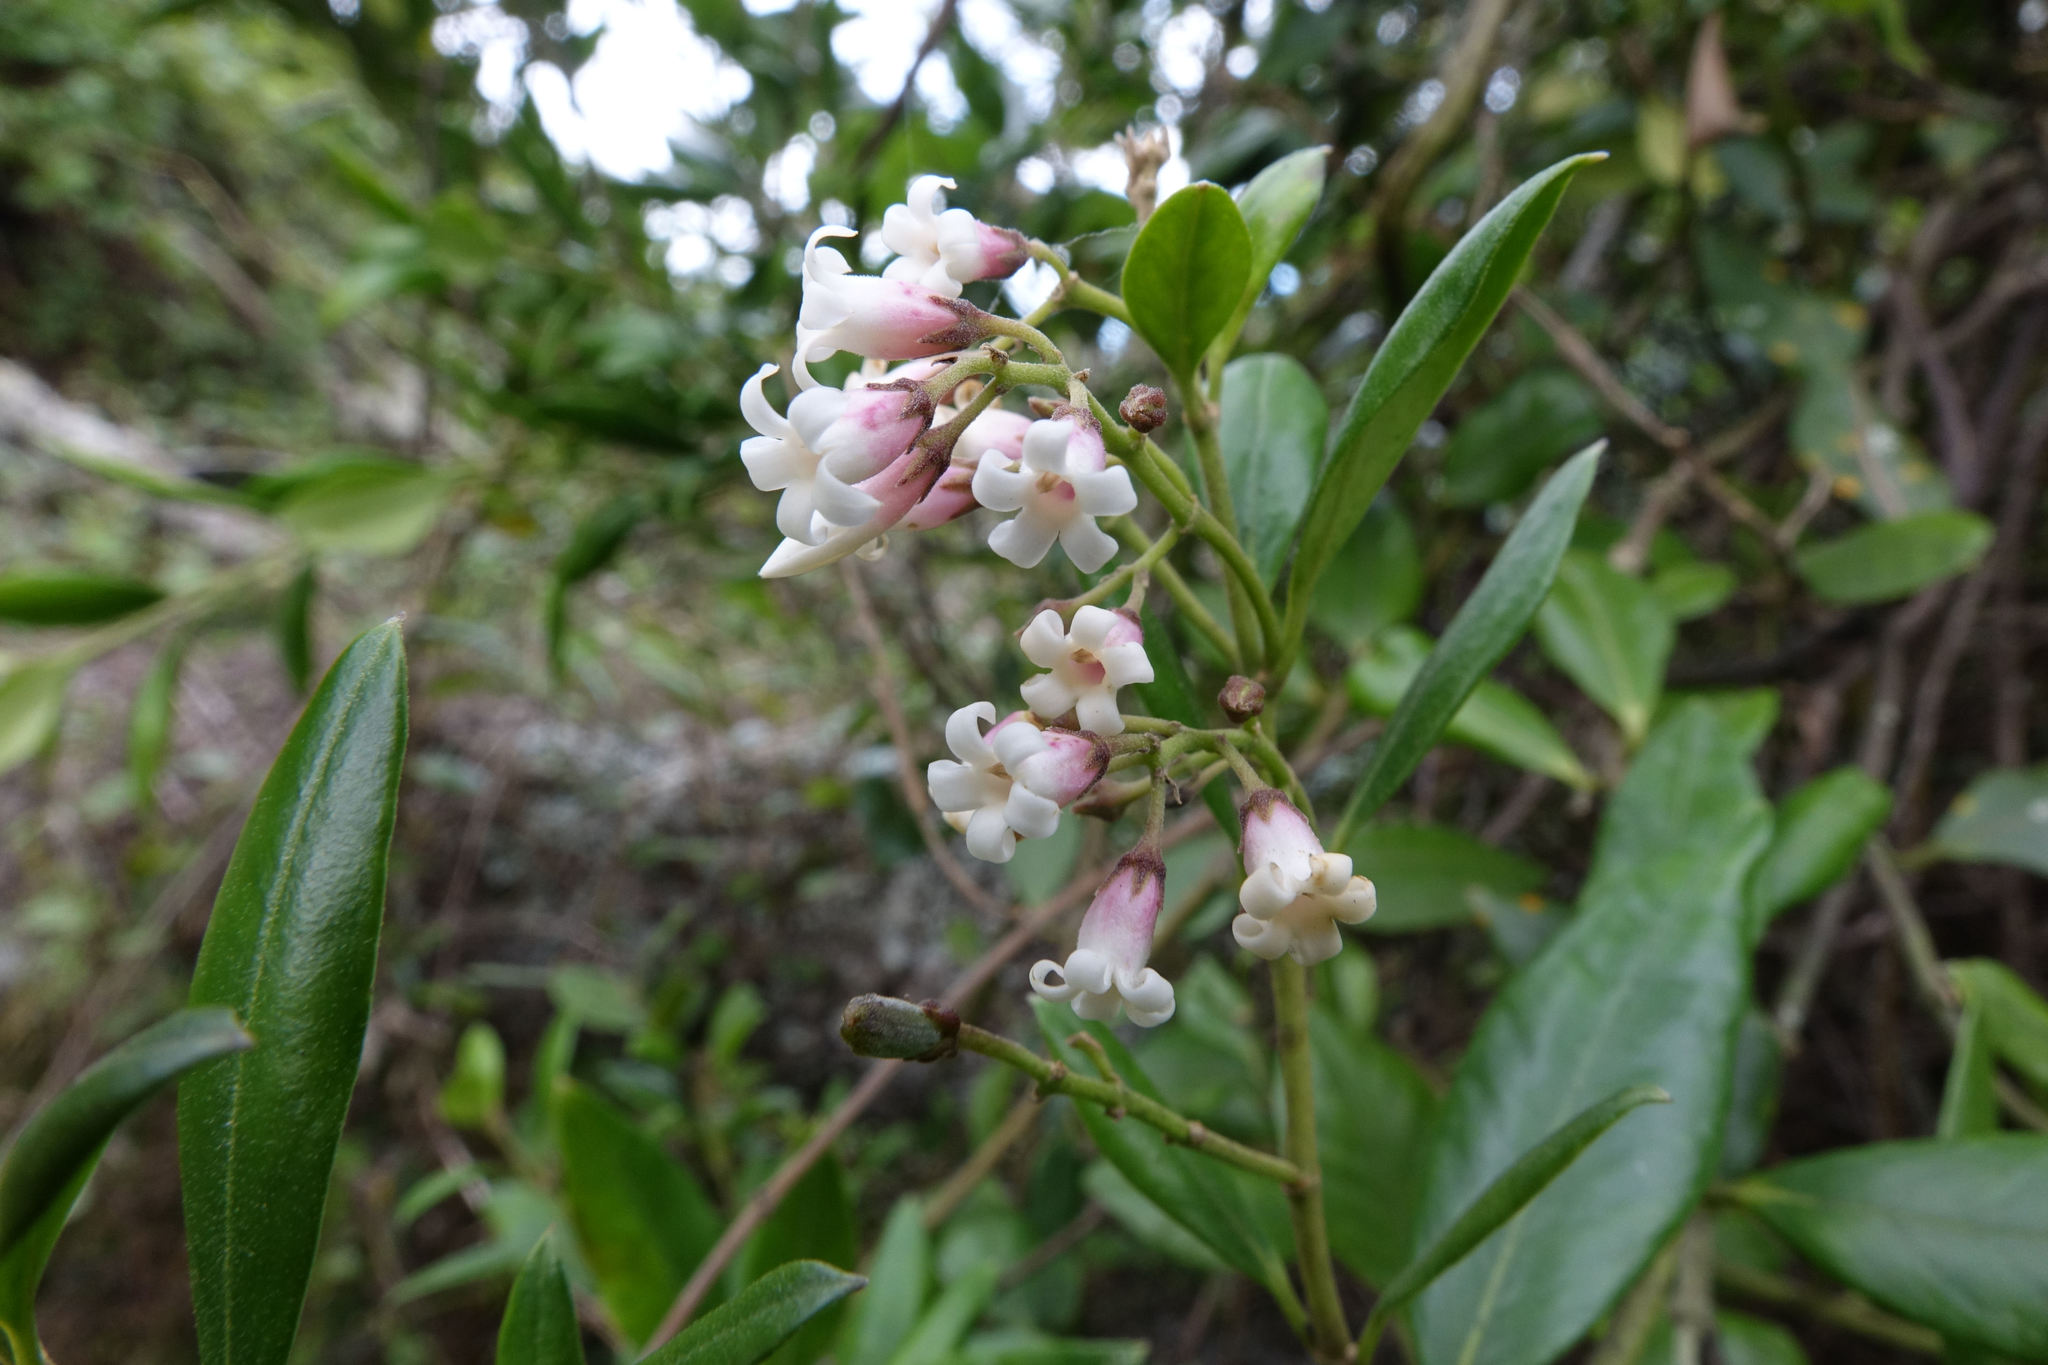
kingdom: Plantae
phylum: Tracheophyta
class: Magnoliopsida
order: Gentianales
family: Apocynaceae
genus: Parsonsia
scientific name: Parsonsia heterophylla
